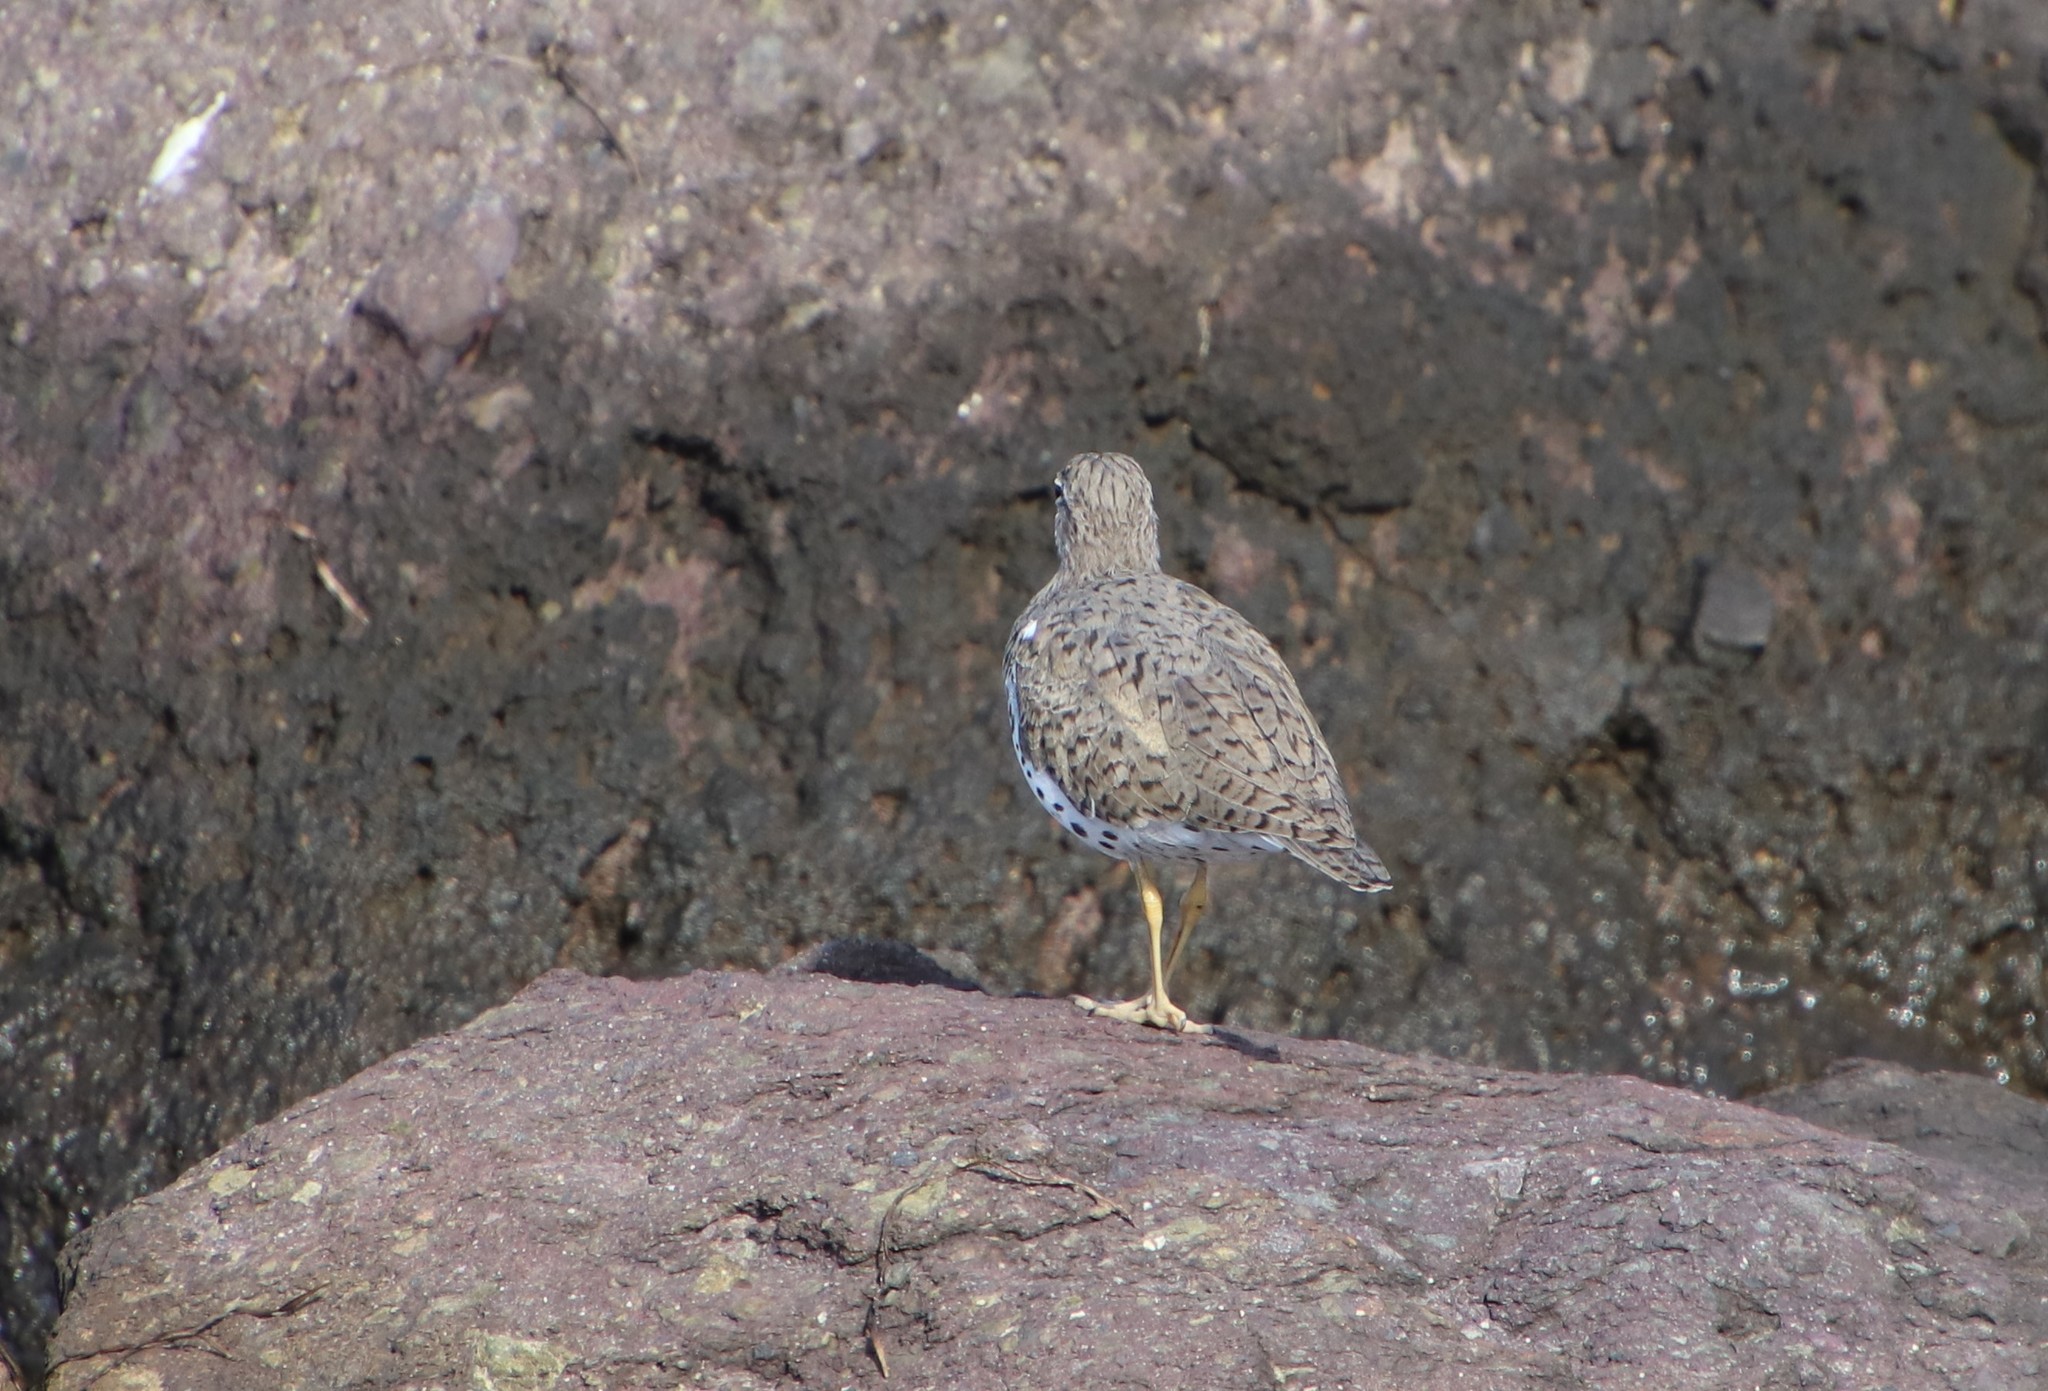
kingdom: Animalia
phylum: Chordata
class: Aves
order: Charadriiformes
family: Scolopacidae
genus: Actitis
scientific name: Actitis macularius
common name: Spotted sandpiper
